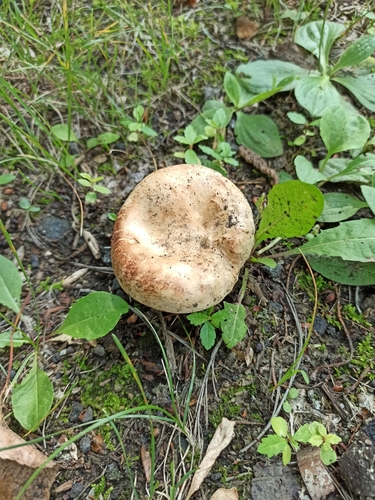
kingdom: Fungi
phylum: Basidiomycota
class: Agaricomycetes
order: Boletales
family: Paxillaceae
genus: Paxillus
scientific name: Paxillus involutus
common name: Brown roll rim
